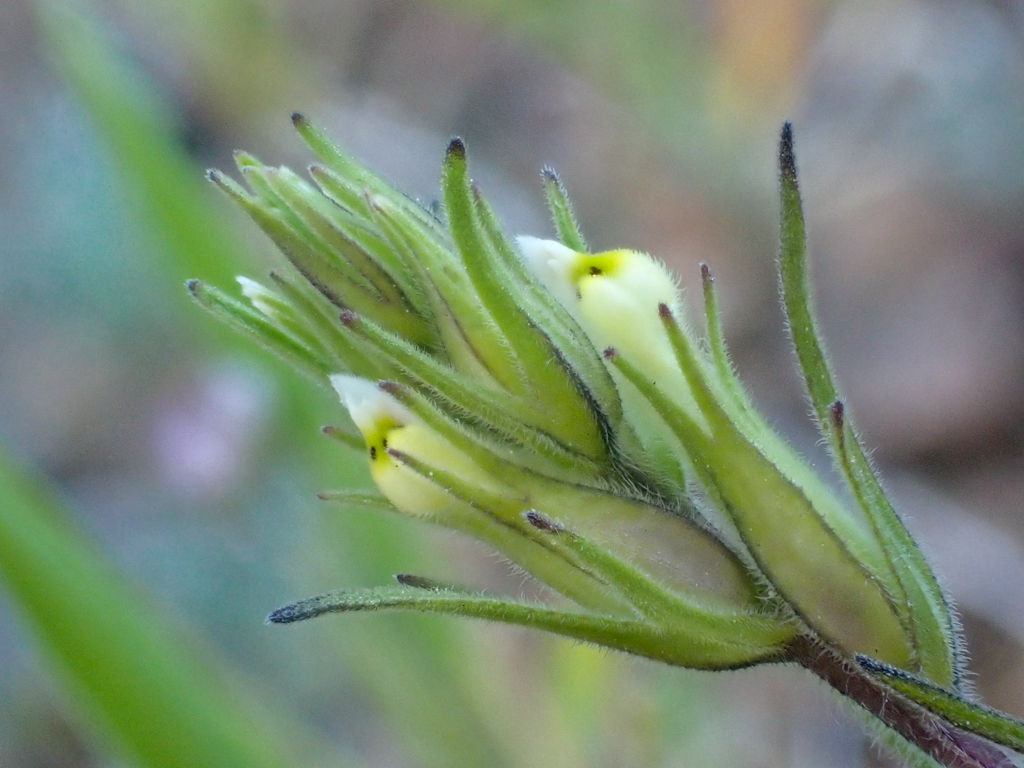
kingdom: Plantae
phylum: Tracheophyta
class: Magnoliopsida
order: Lamiales
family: Orobanchaceae
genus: Castilleja
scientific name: Castilleja attenuata
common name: Valley tassels
